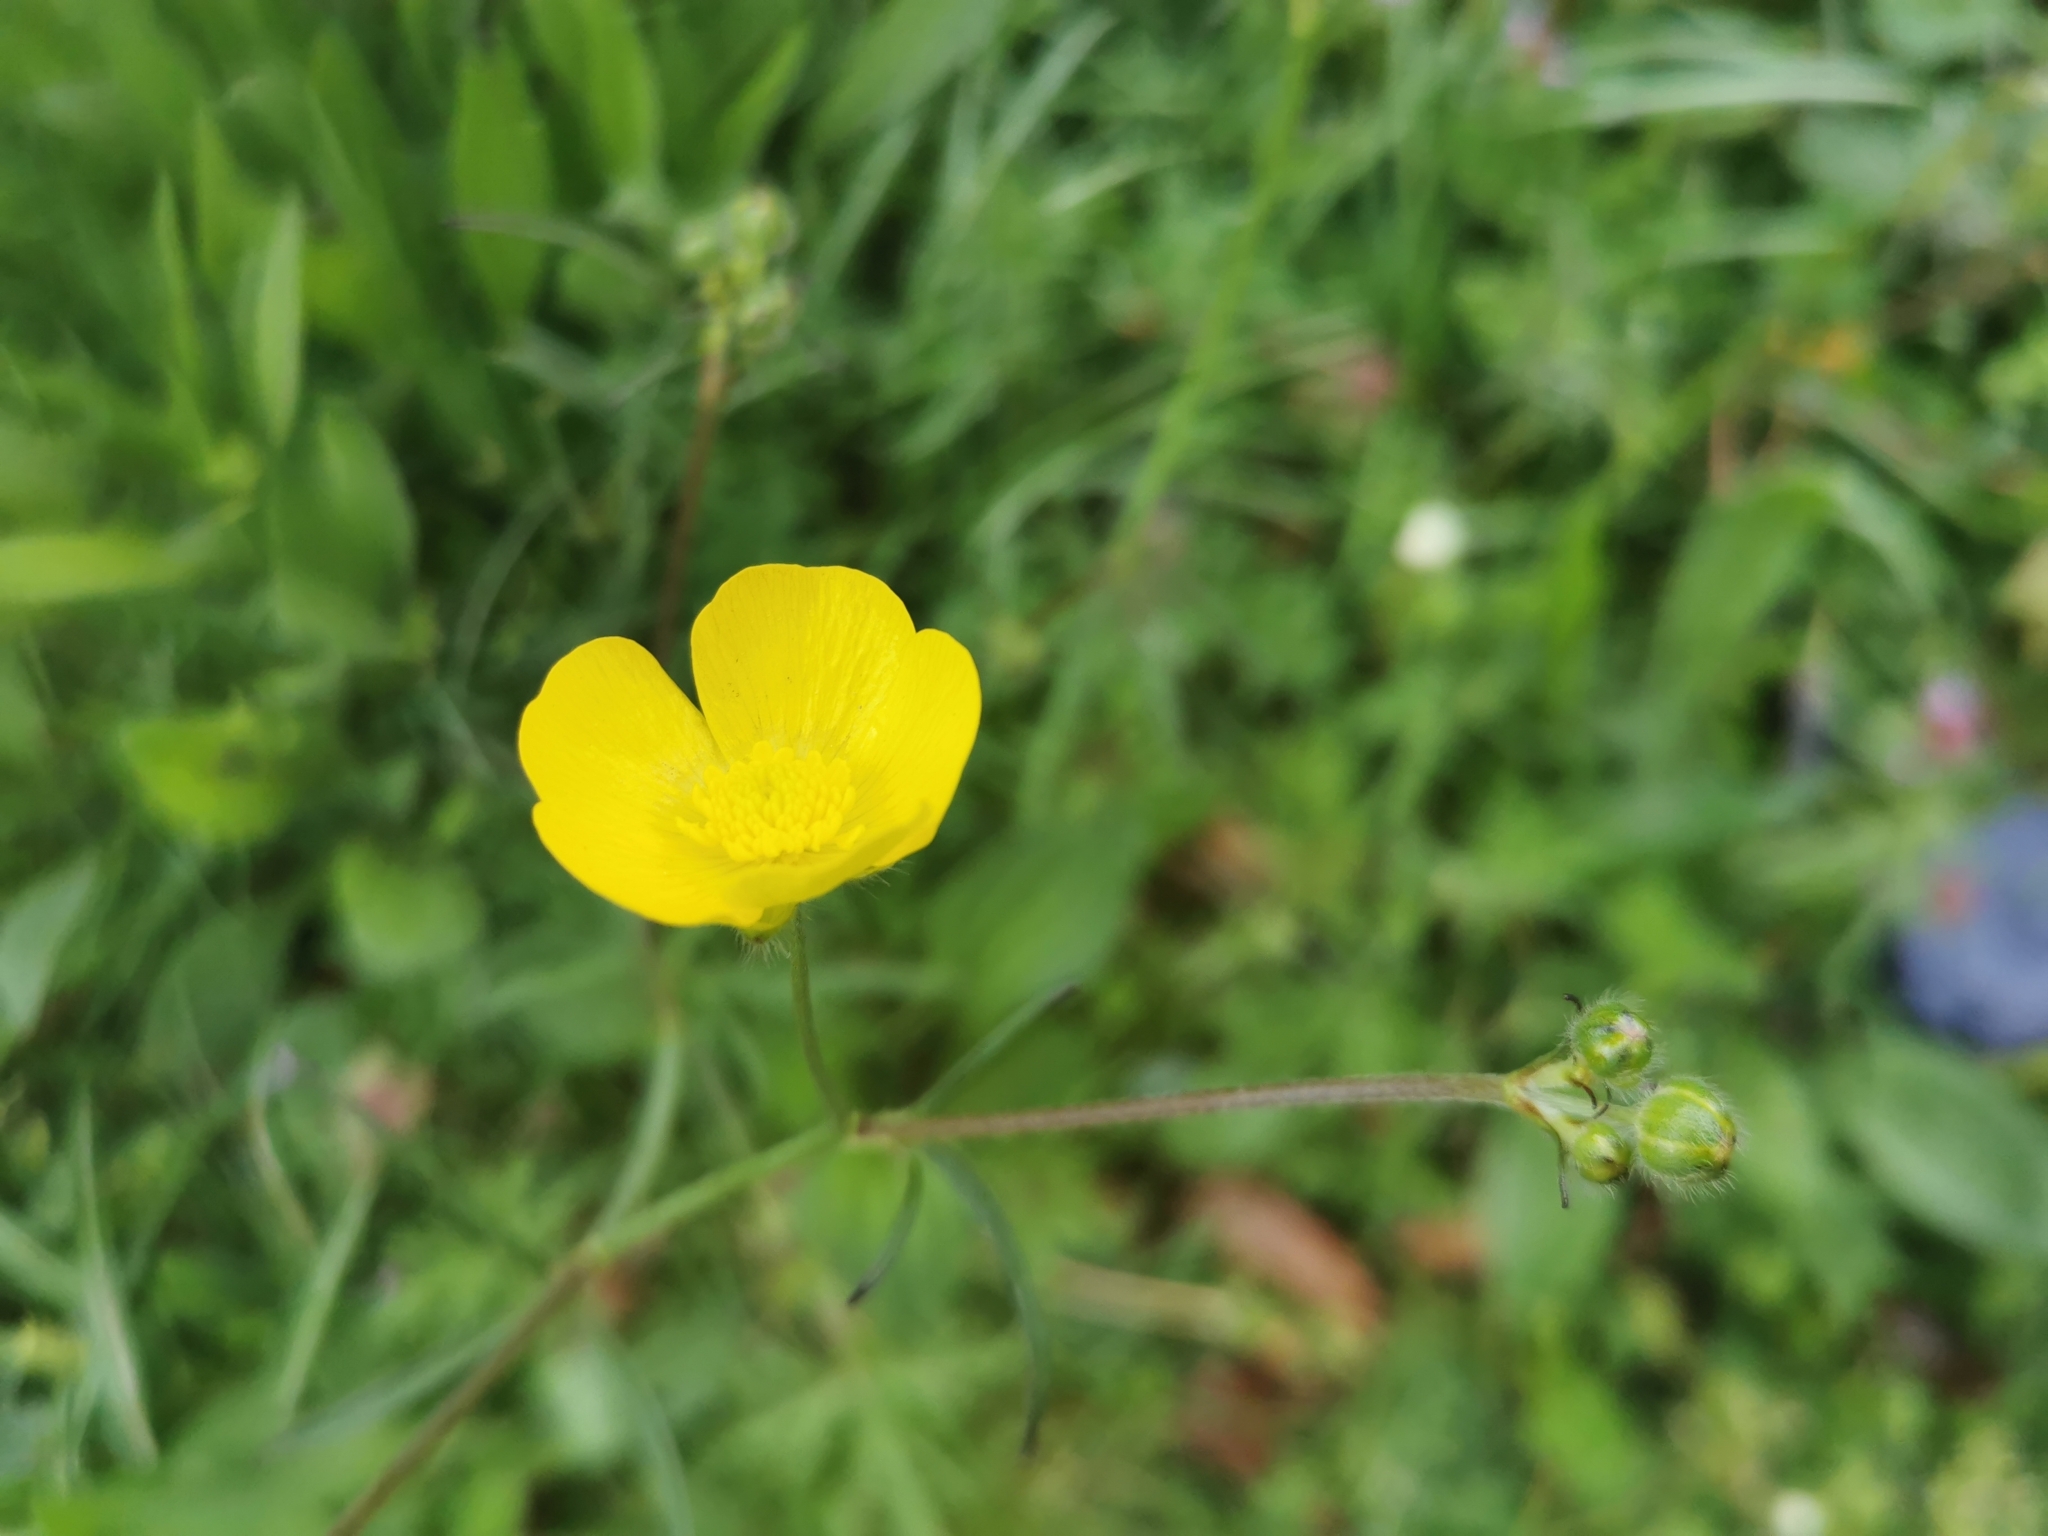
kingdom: Plantae
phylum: Tracheophyta
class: Magnoliopsida
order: Ranunculales
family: Ranunculaceae
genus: Ranunculus
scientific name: Ranunculus acris
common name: Meadow buttercup
